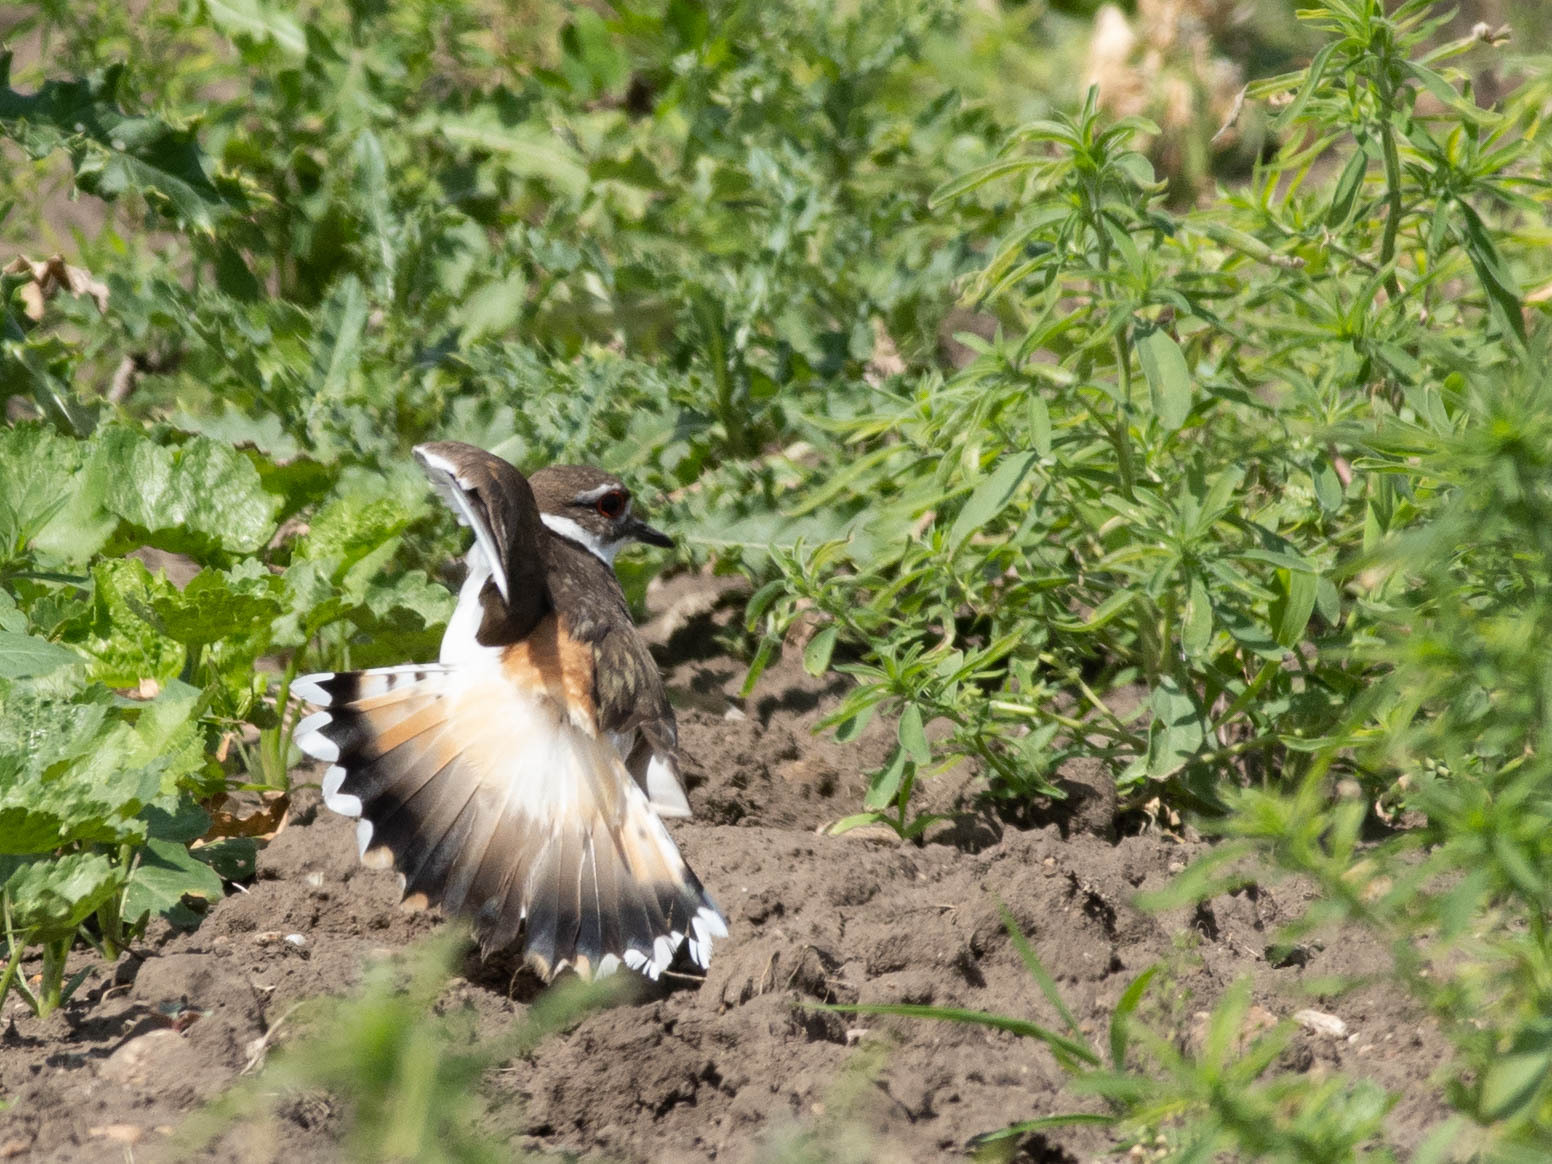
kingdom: Animalia
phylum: Chordata
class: Aves
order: Charadriiformes
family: Charadriidae
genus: Charadrius
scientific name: Charadrius vociferus
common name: Killdeer
